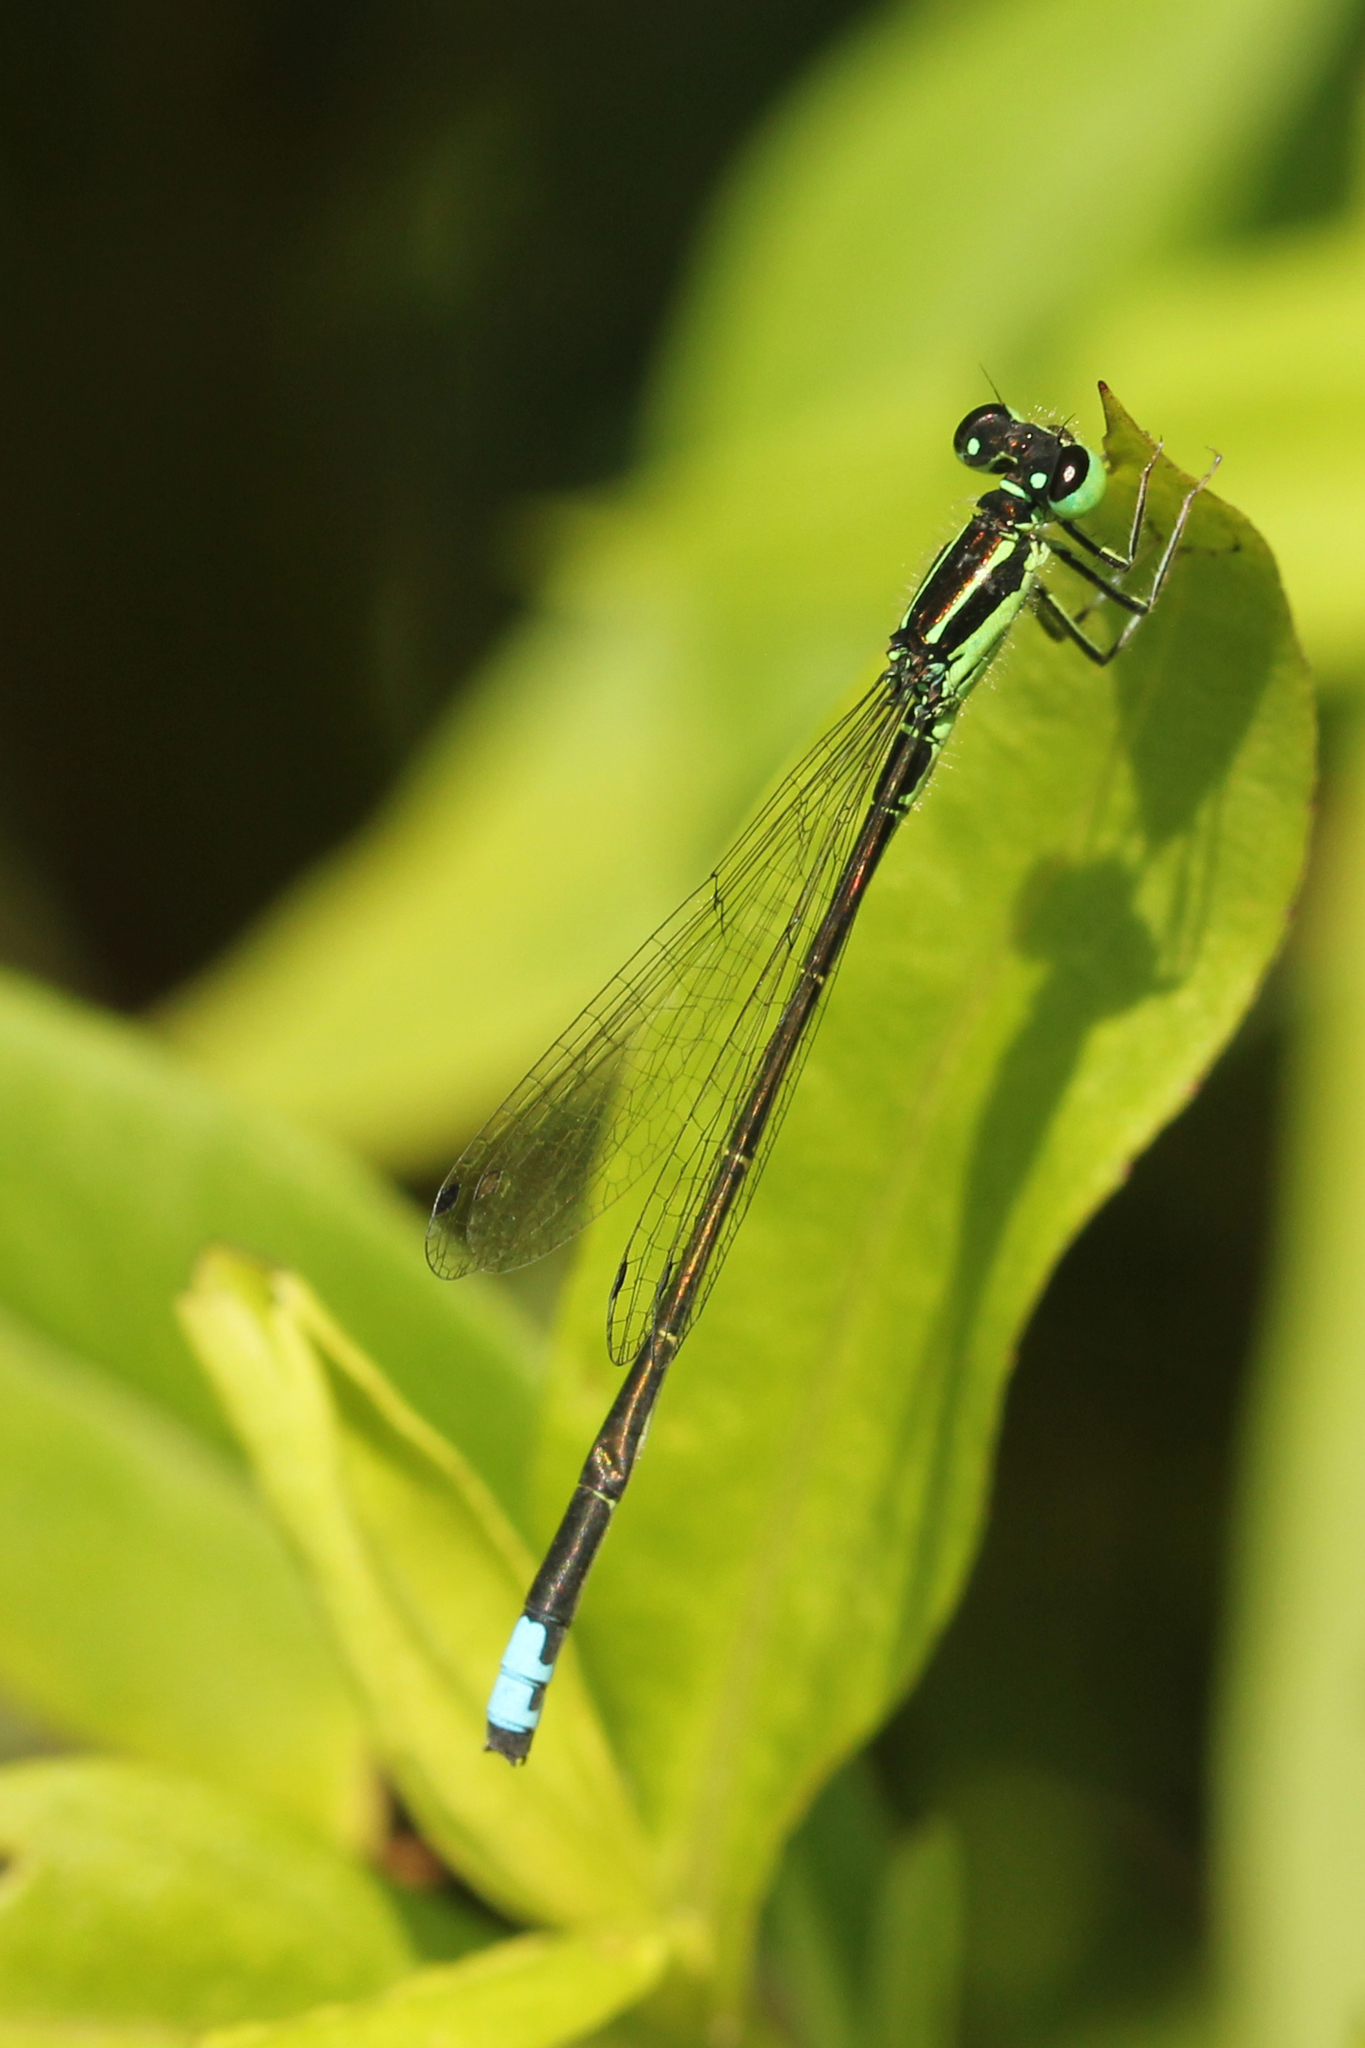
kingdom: Animalia
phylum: Arthropoda
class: Insecta
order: Odonata
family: Coenagrionidae
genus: Ischnura
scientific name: Ischnura verticalis
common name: Eastern forktail
